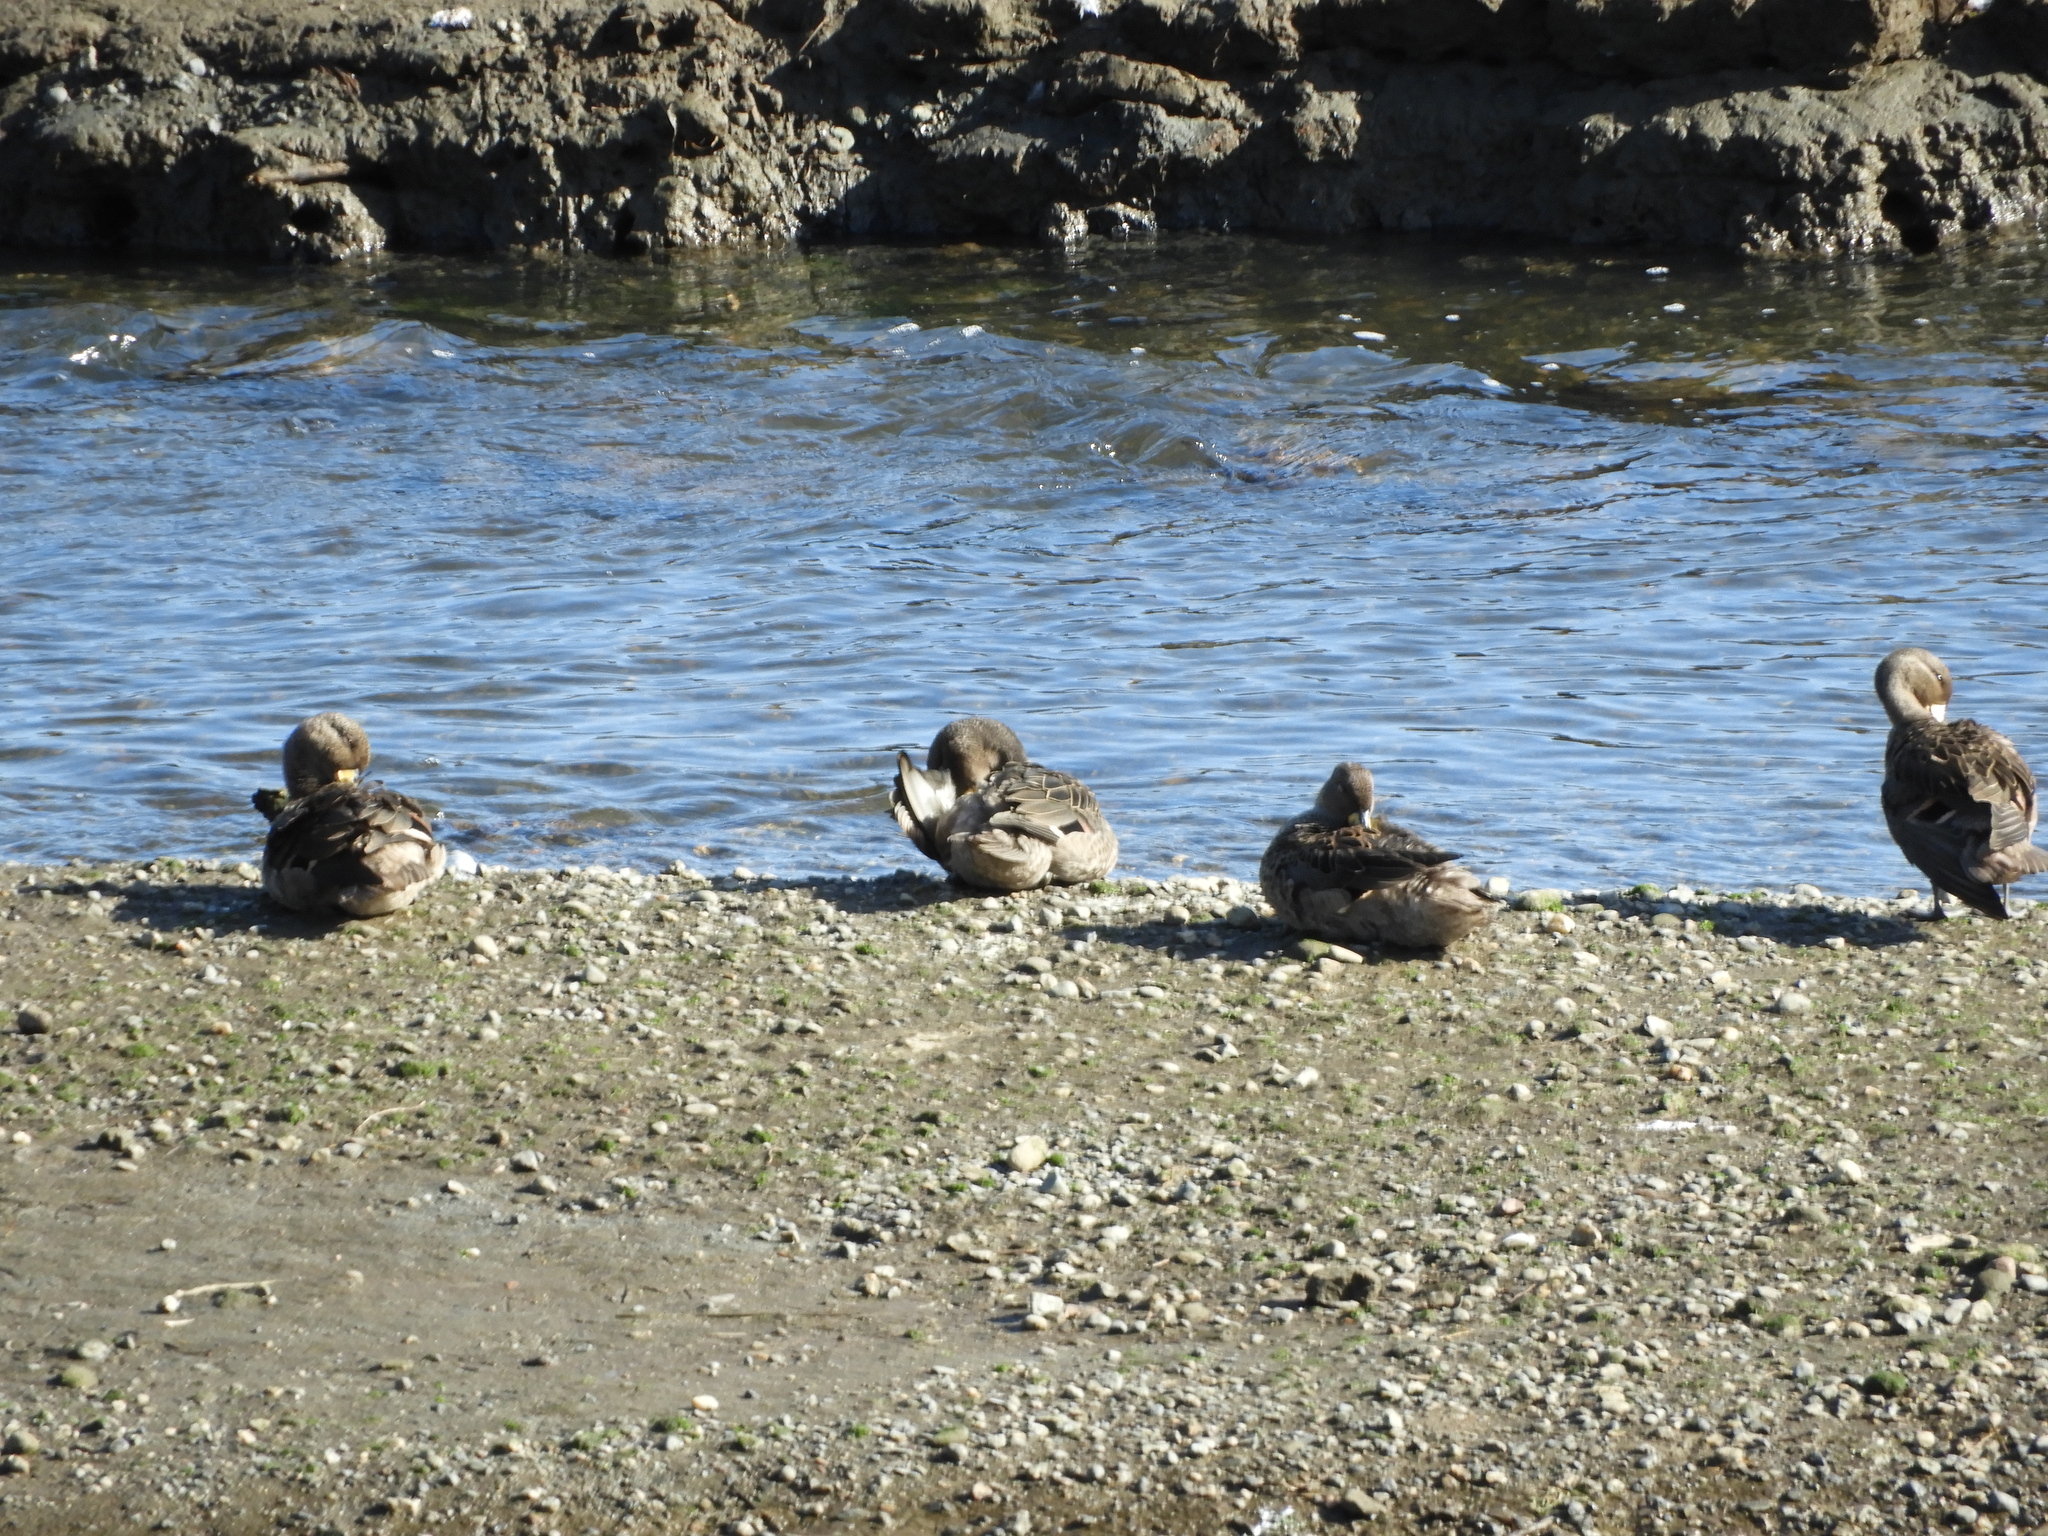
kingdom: Animalia
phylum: Chordata
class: Aves
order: Anseriformes
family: Anatidae
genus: Anas
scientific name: Anas georgica
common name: Yellow-billed pintail
